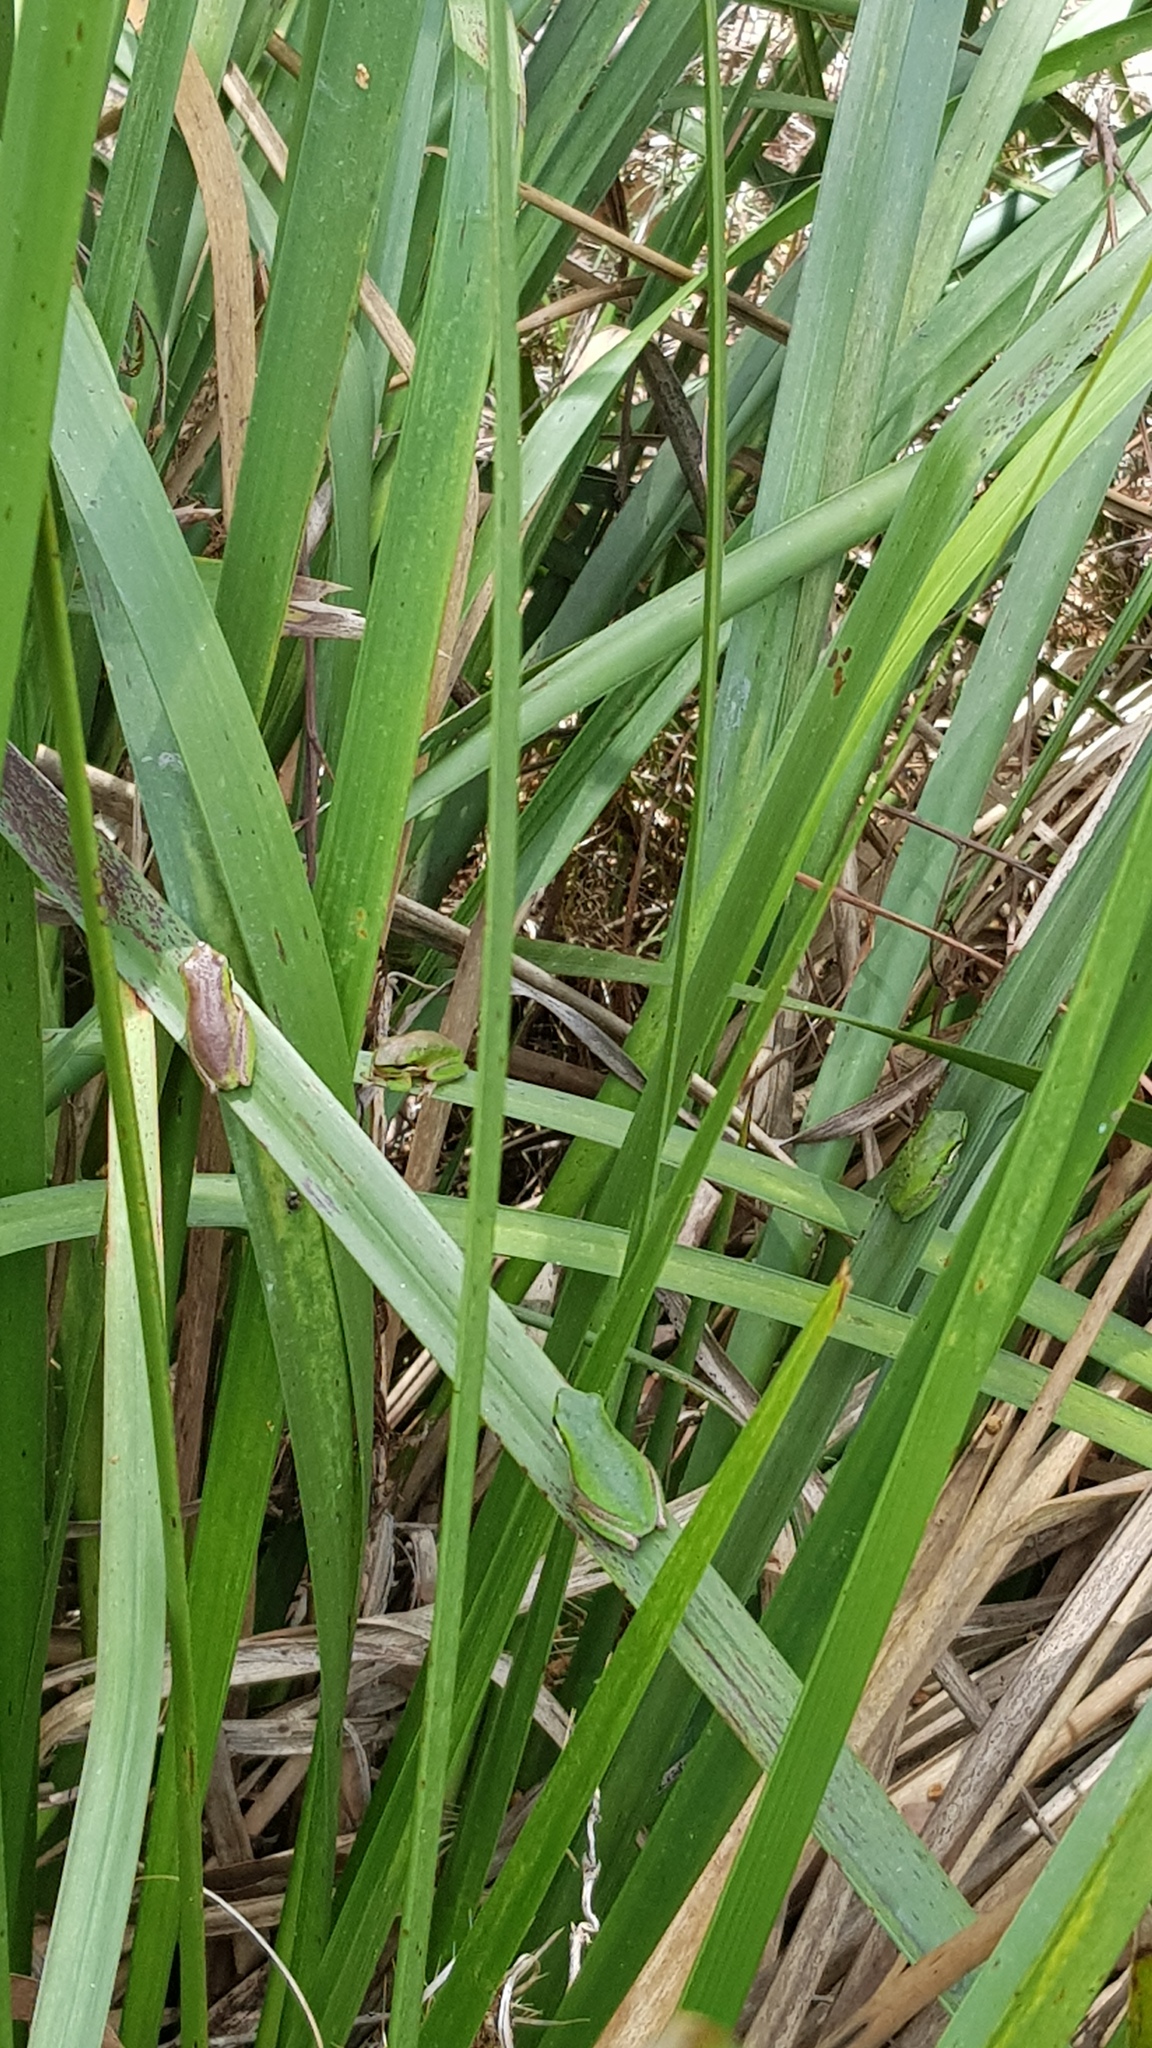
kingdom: Animalia
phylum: Chordata
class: Amphibia
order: Anura
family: Pelodryadidae
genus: Litoria
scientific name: Litoria fallax
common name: Eastern dwarf treefrog
